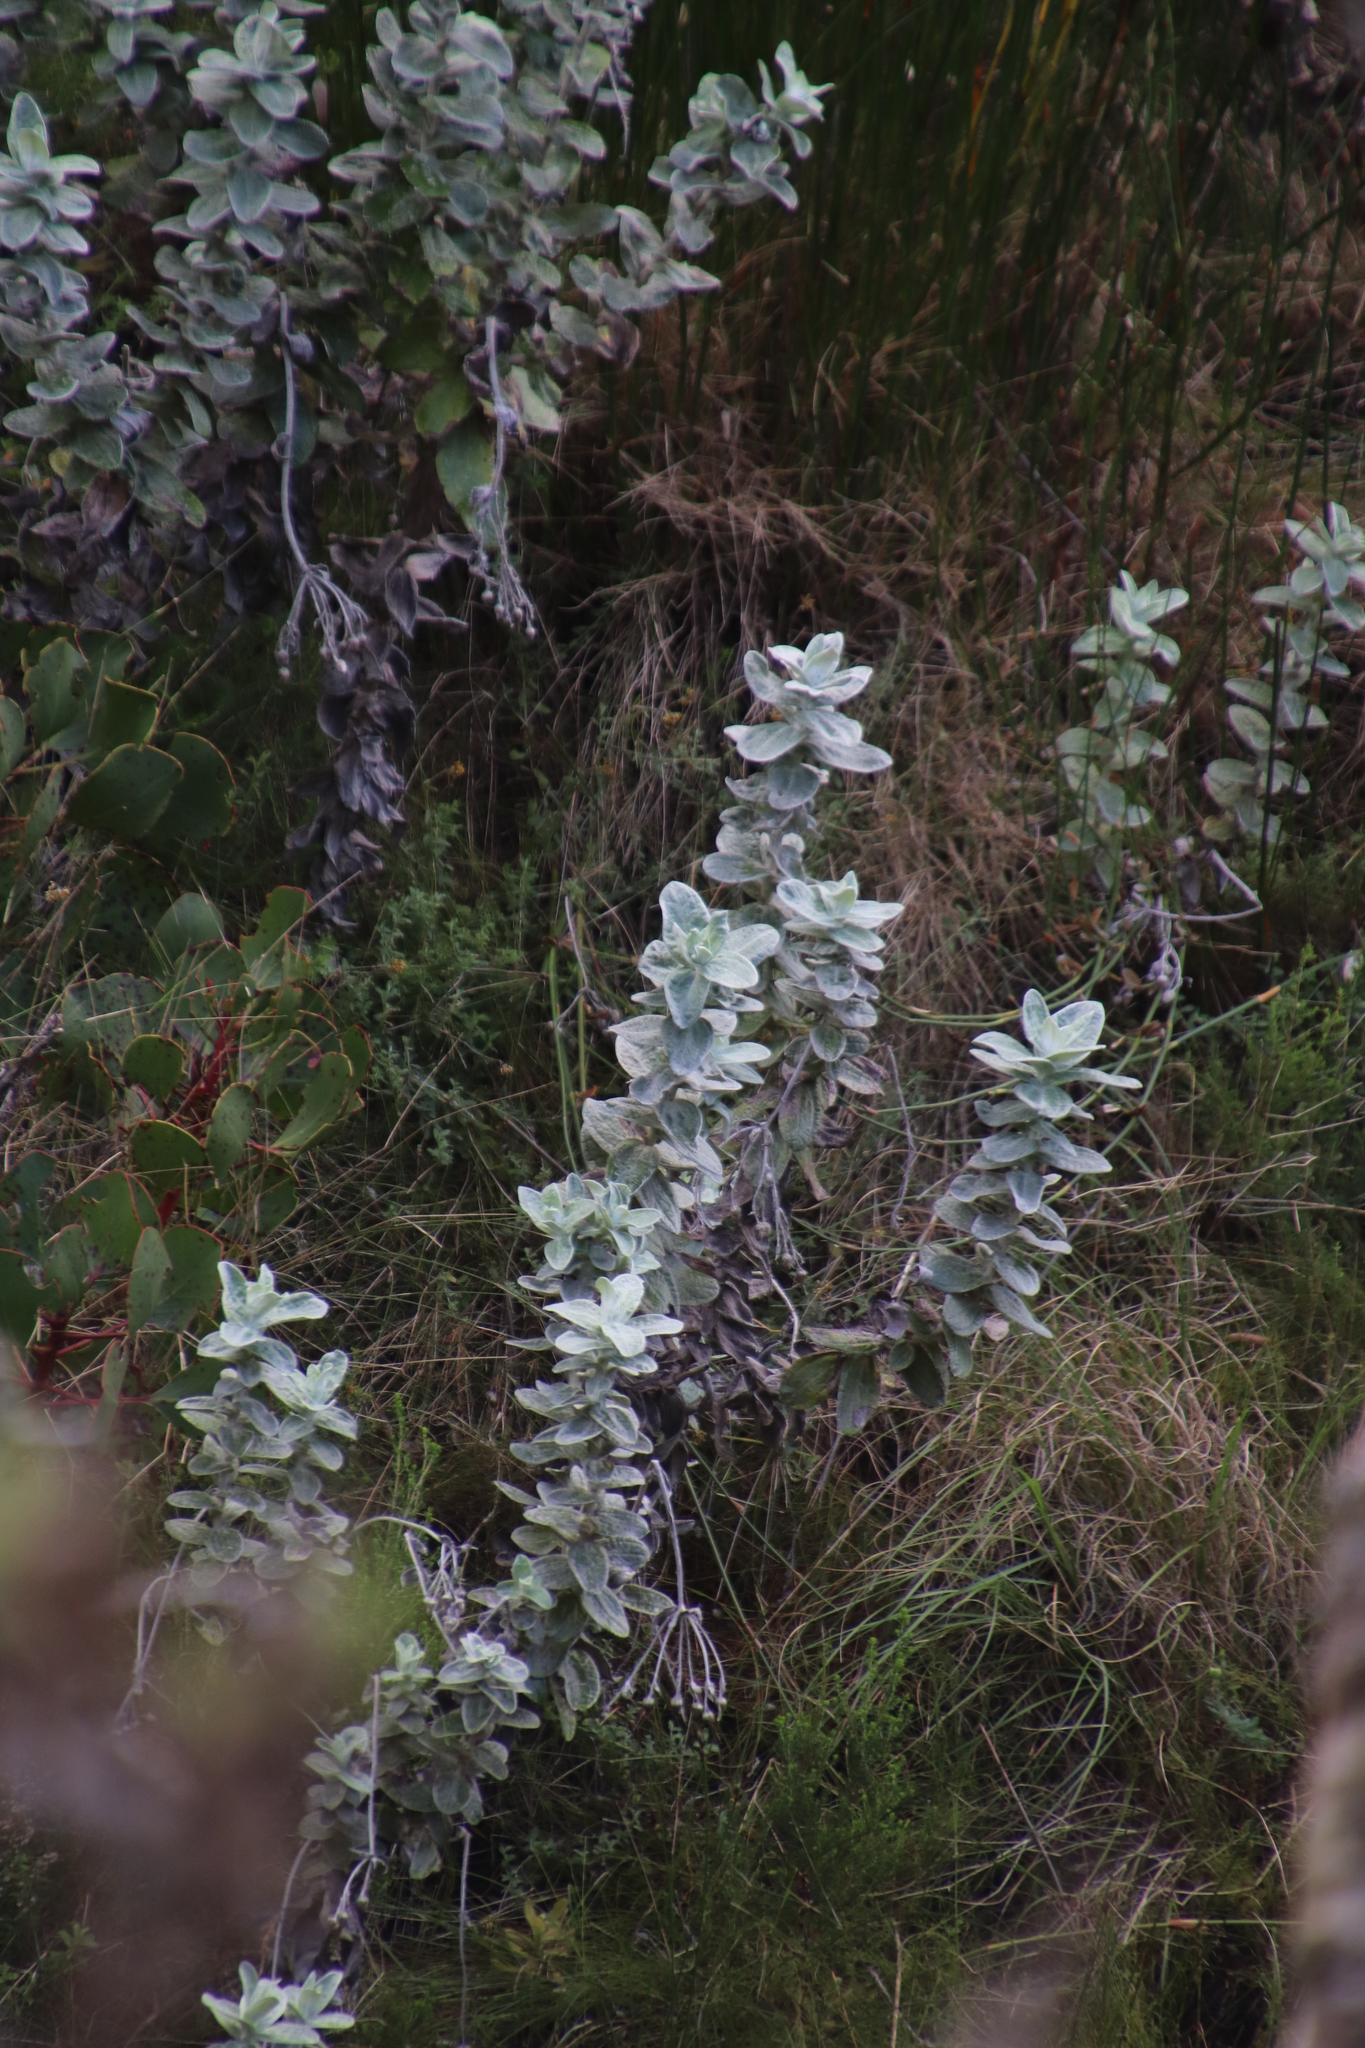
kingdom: Plantae
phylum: Tracheophyta
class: Magnoliopsida
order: Asterales
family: Asteraceae
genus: Helichrysum
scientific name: Helichrysum fruticans
